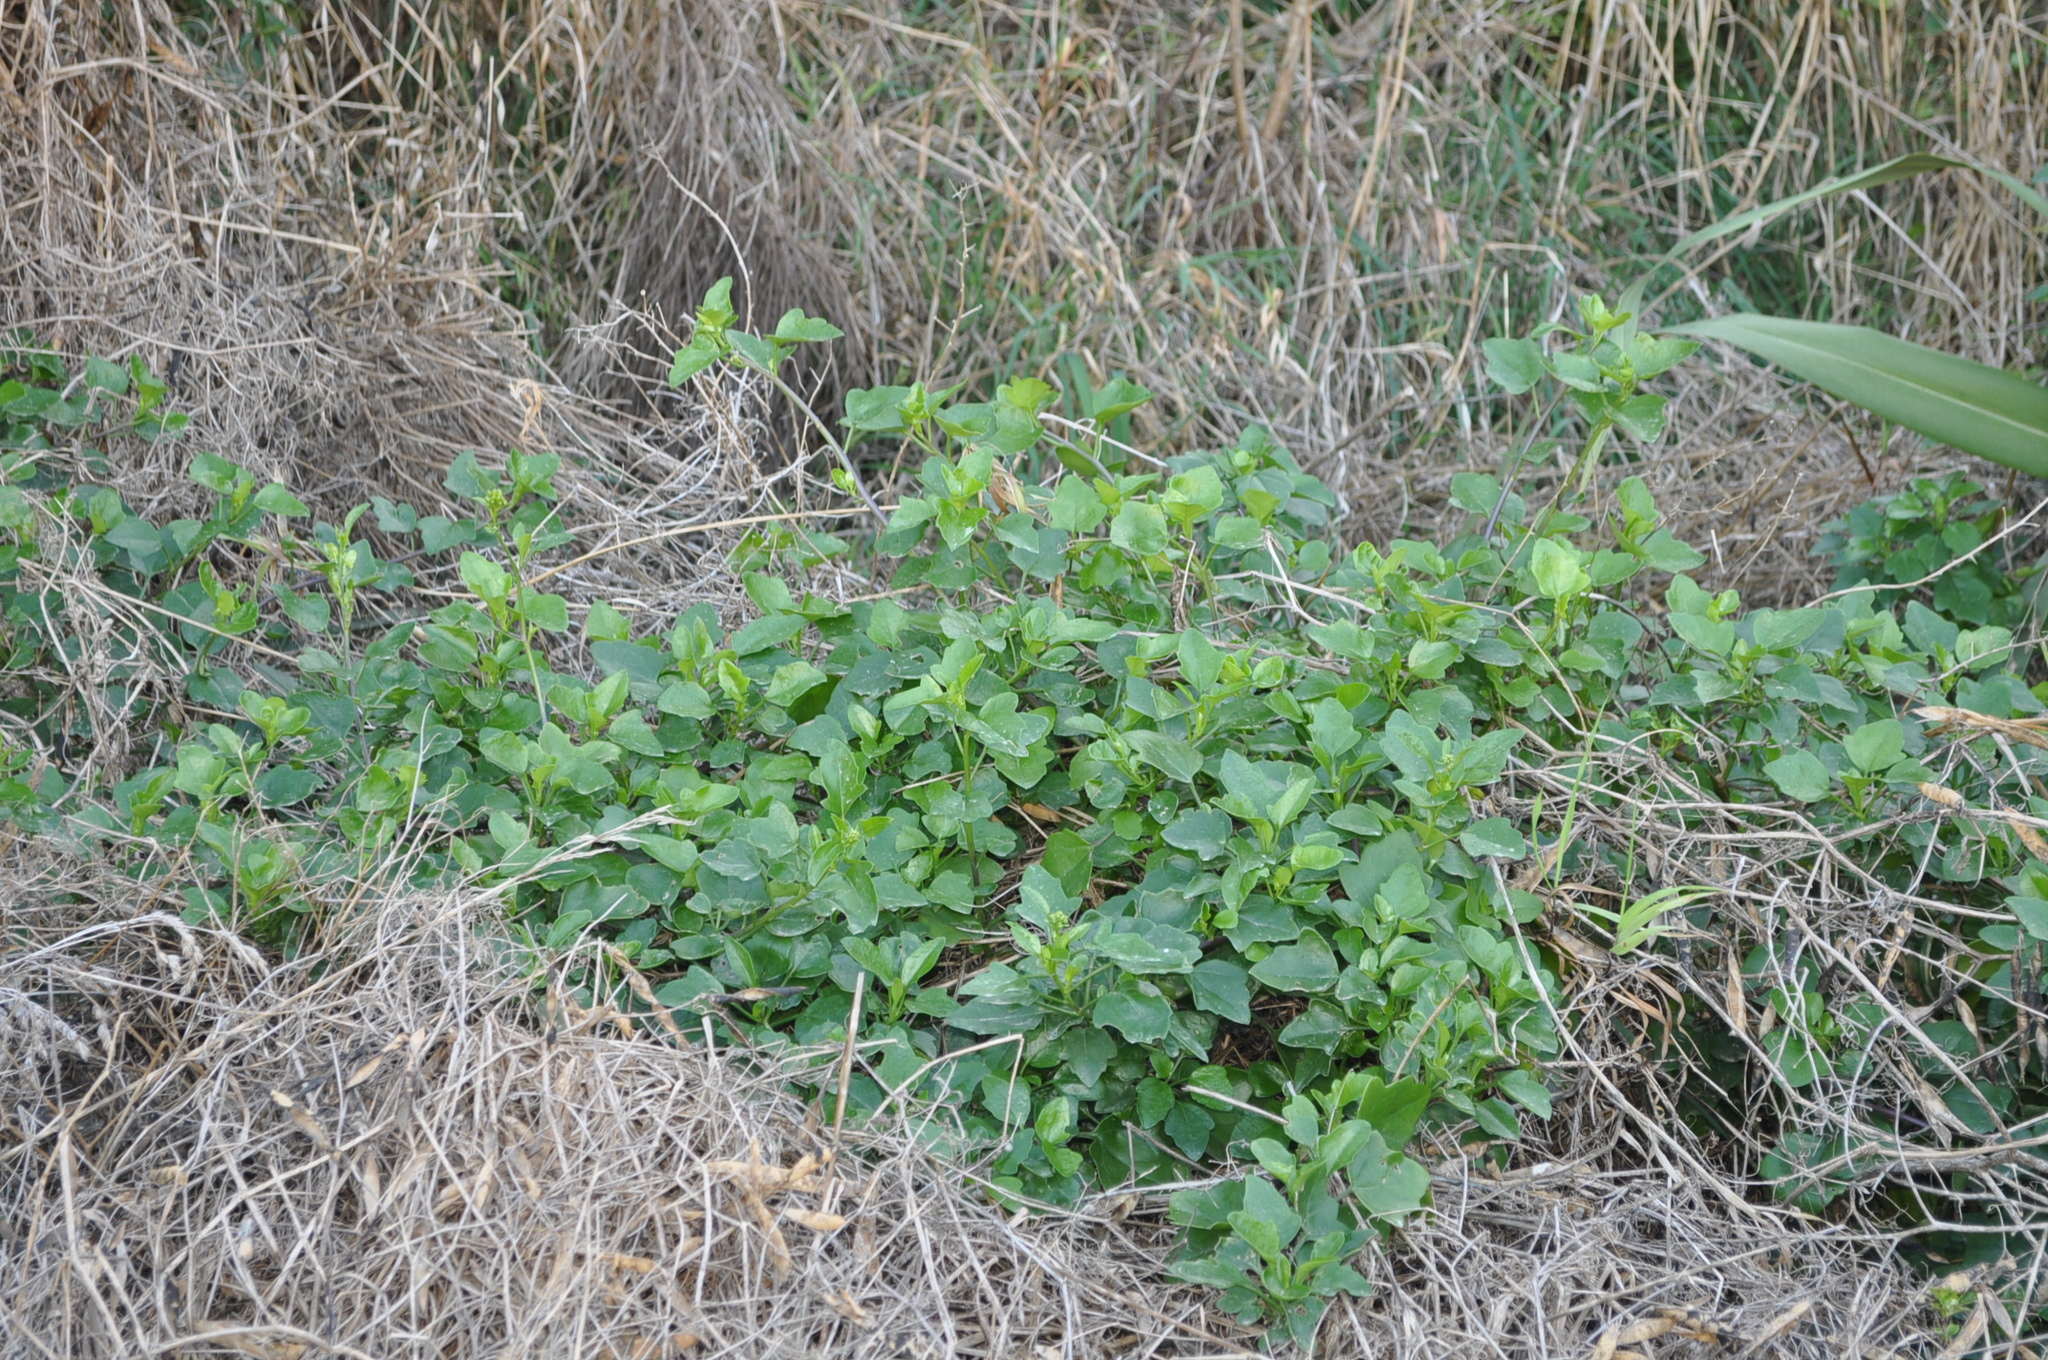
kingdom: Plantae
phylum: Tracheophyta
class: Magnoliopsida
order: Asterales
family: Asteraceae
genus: Senecio
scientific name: Senecio angulatus
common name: Climbing groundsel
